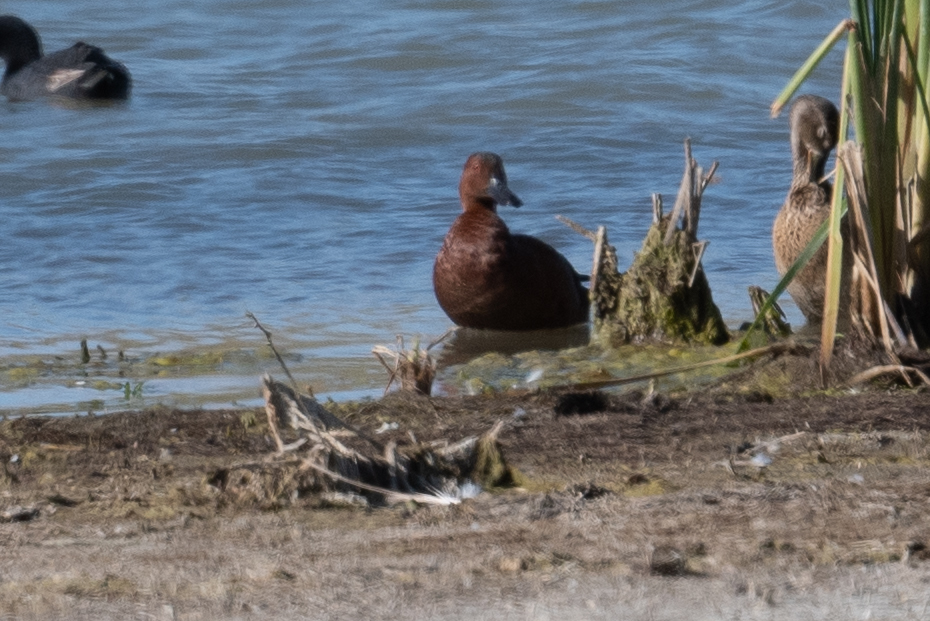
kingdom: Animalia
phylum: Chordata
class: Aves
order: Anseriformes
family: Anatidae
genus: Spatula
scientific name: Spatula cyanoptera
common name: Cinnamon teal
